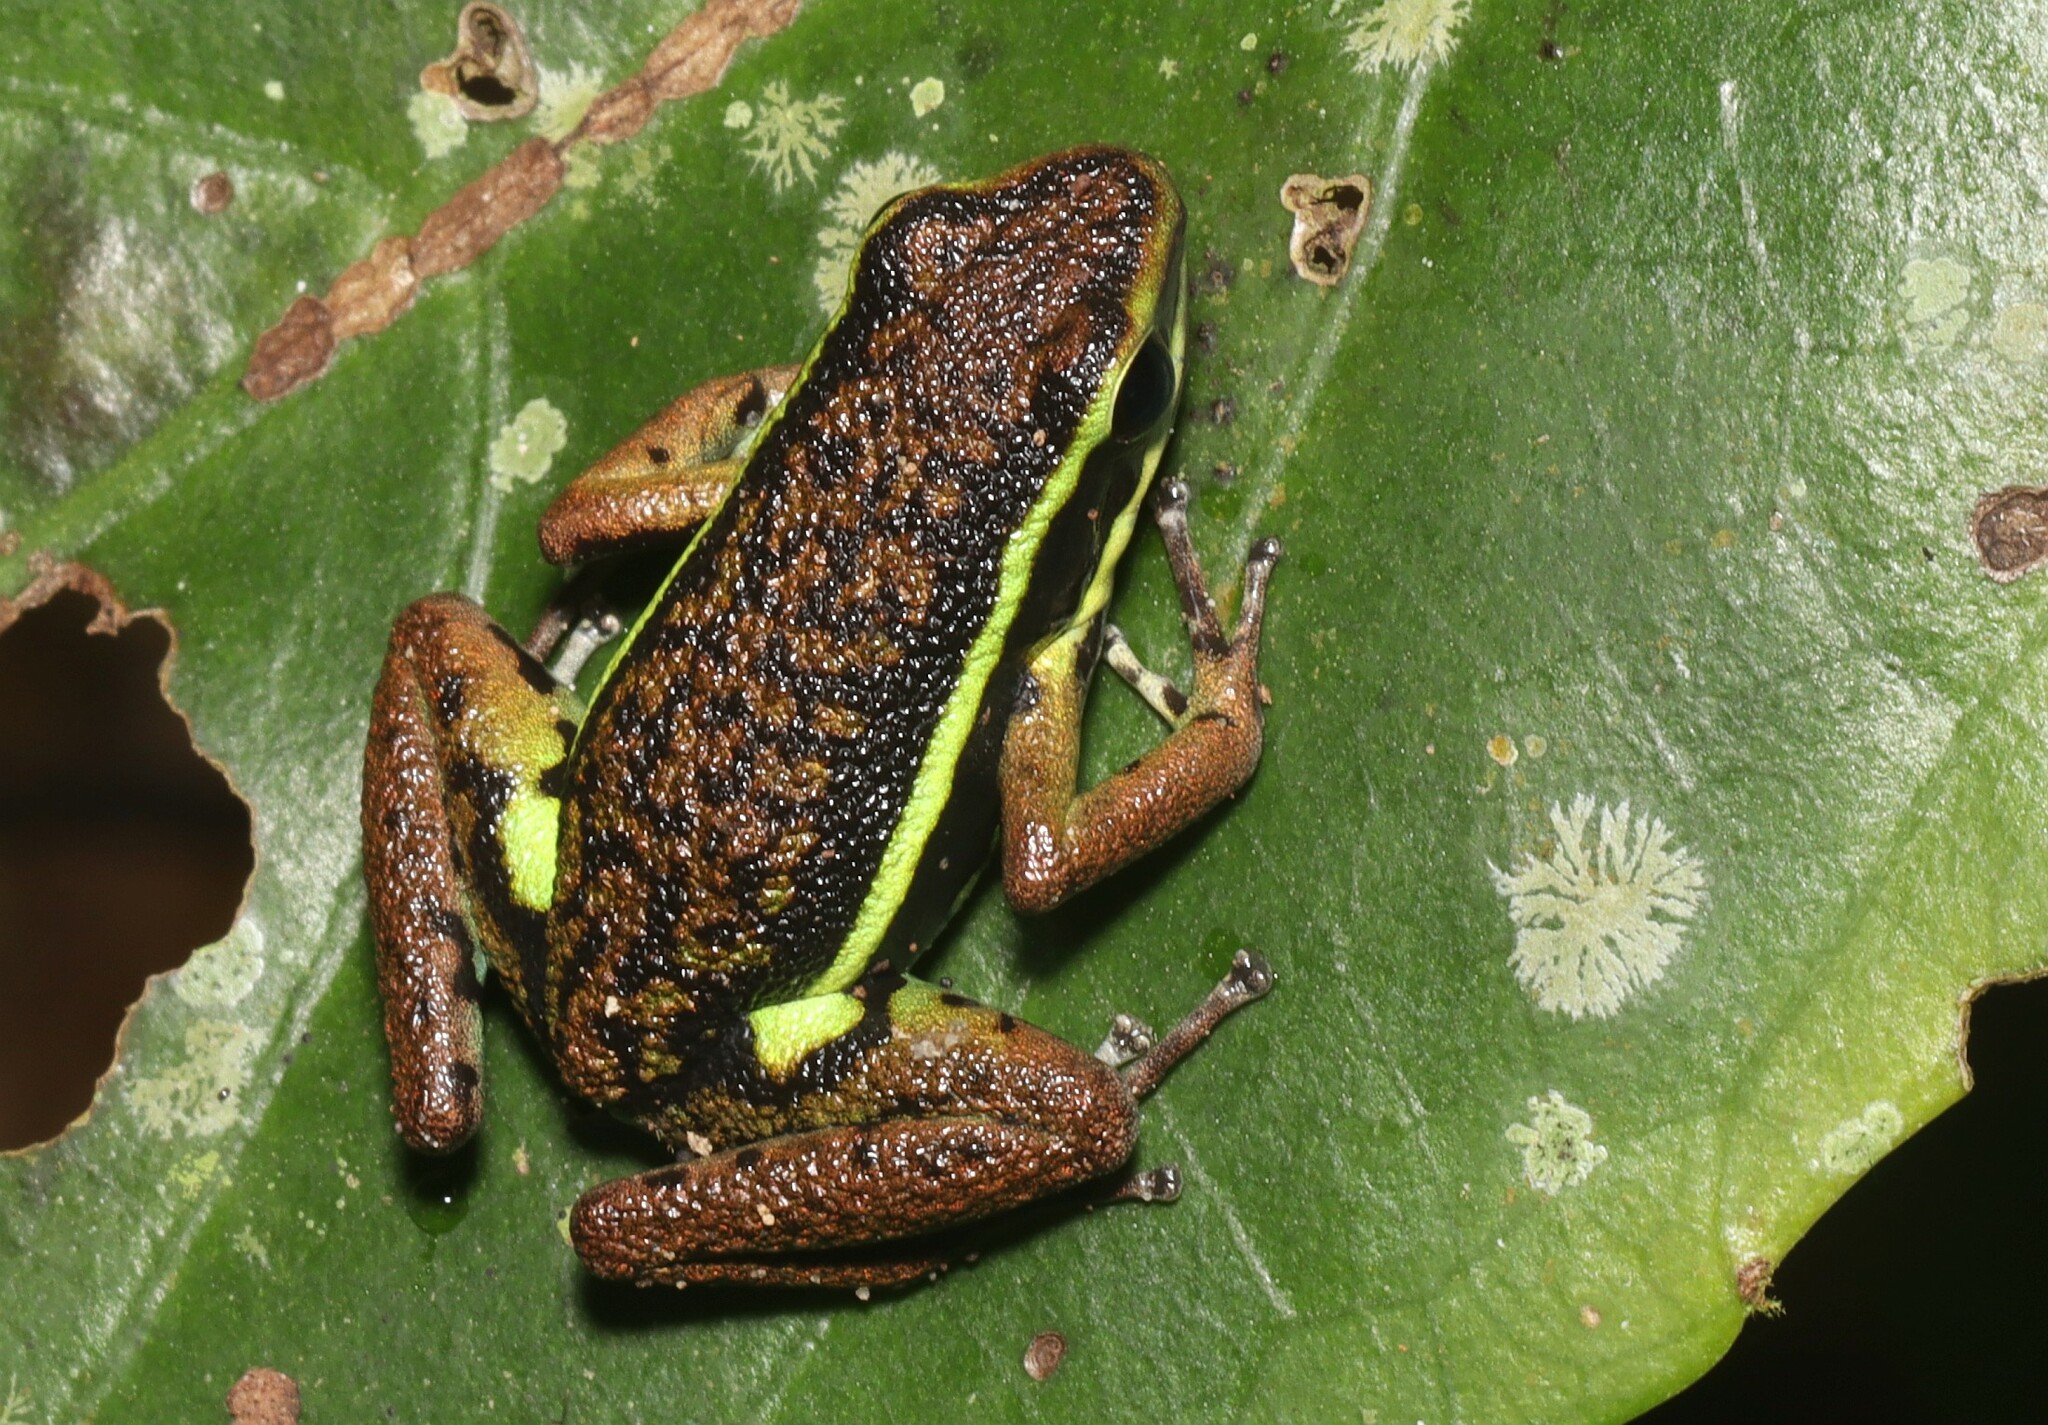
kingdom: Animalia
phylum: Chordata
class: Amphibia
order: Anura
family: Dendrobatidae
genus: Ameerega
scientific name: Ameerega petersi
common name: Peru poison frog
